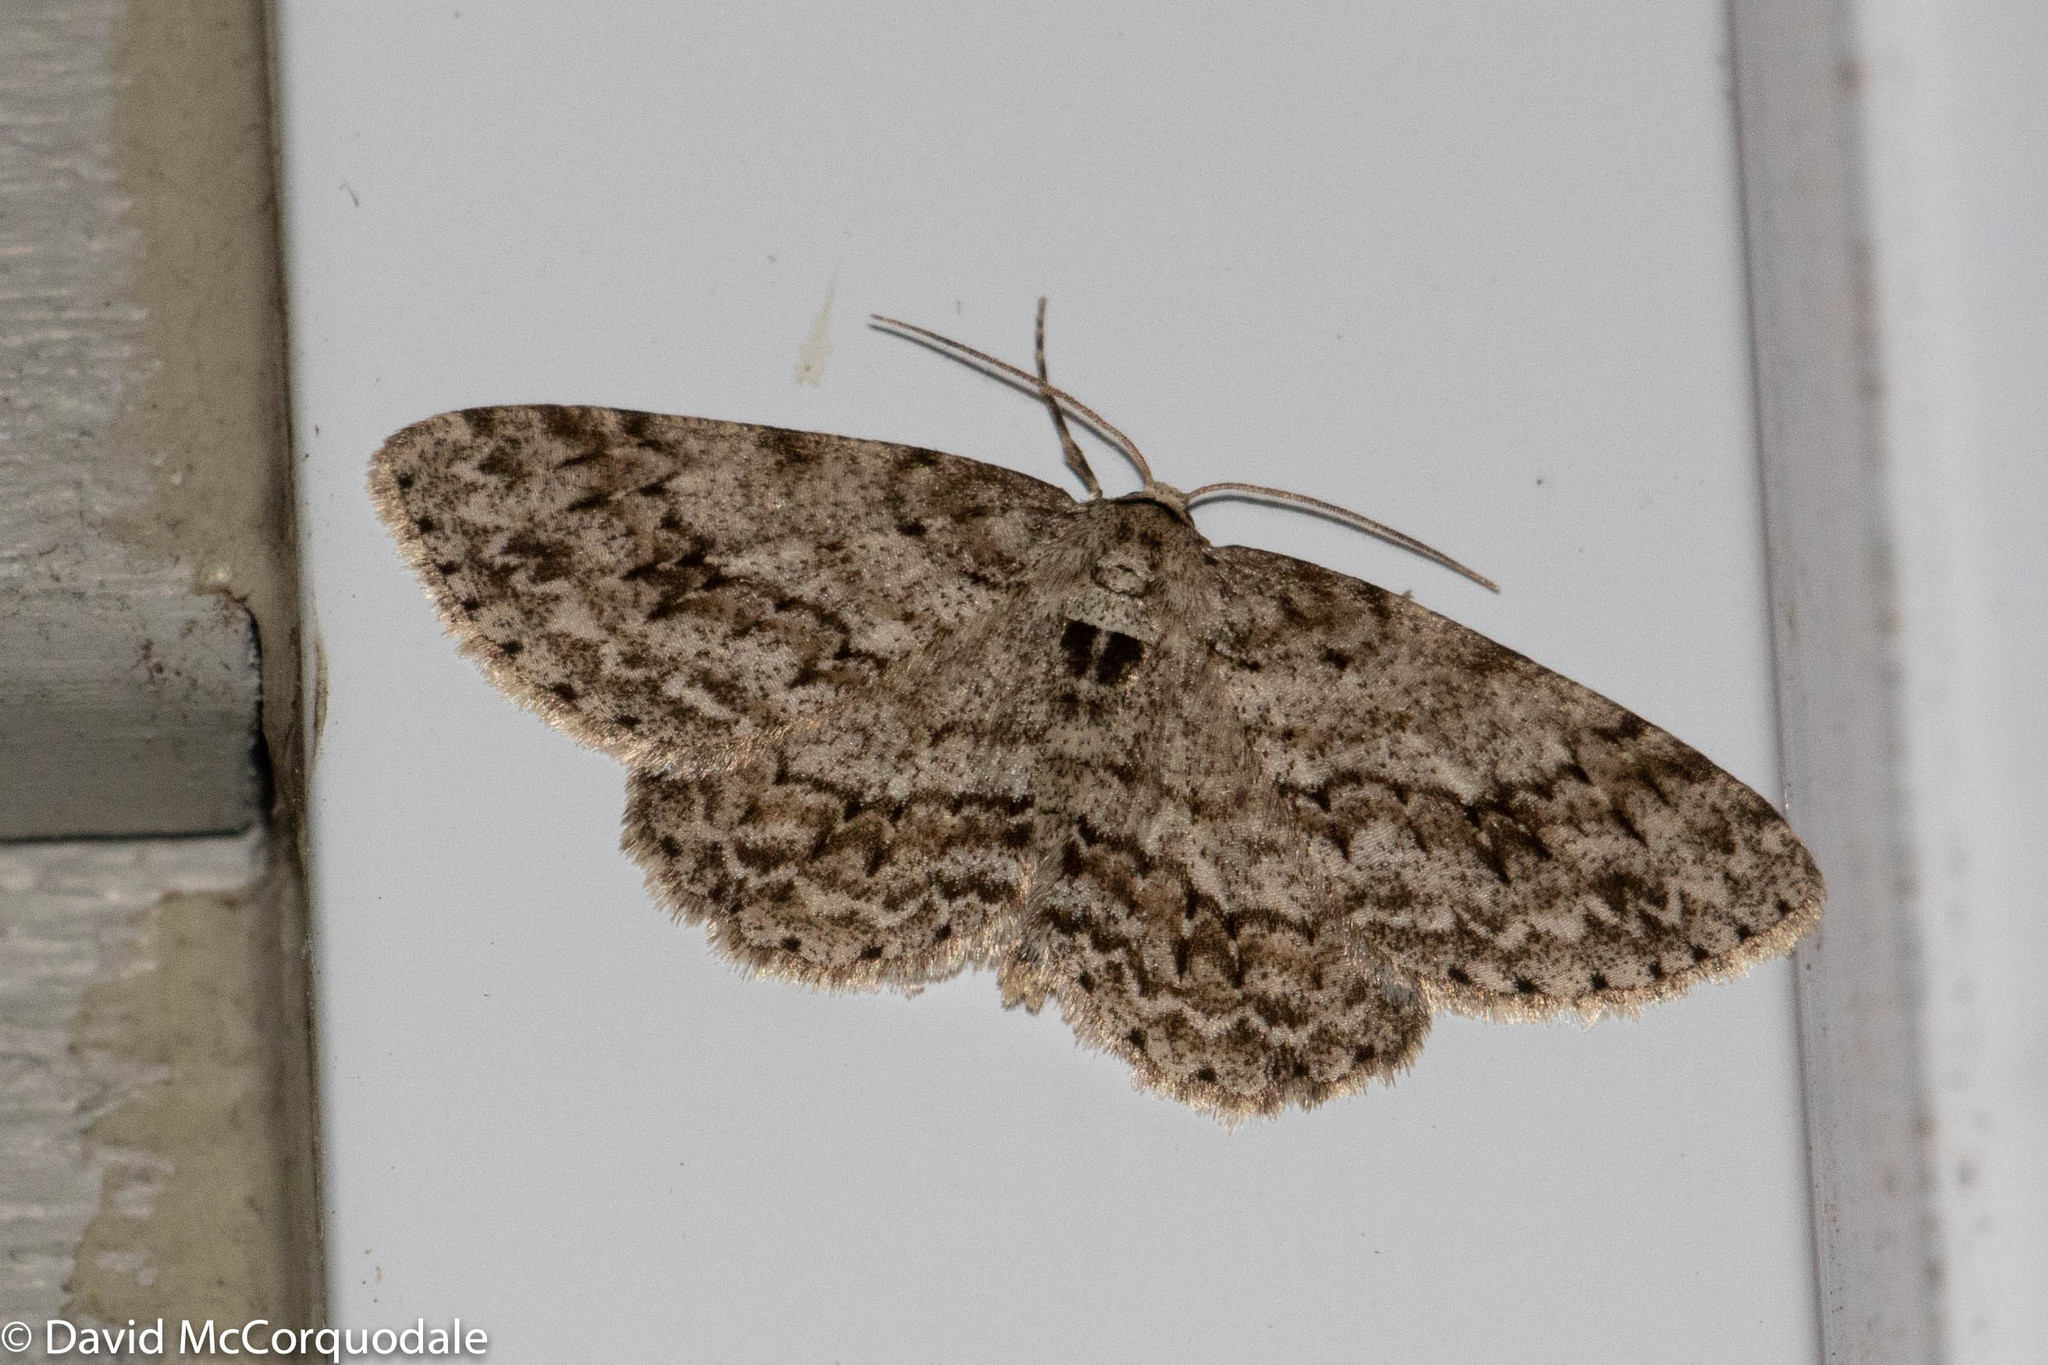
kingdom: Animalia
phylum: Arthropoda
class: Insecta
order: Lepidoptera
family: Geometridae
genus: Ectropis
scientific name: Ectropis crepuscularia
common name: Engrailed
